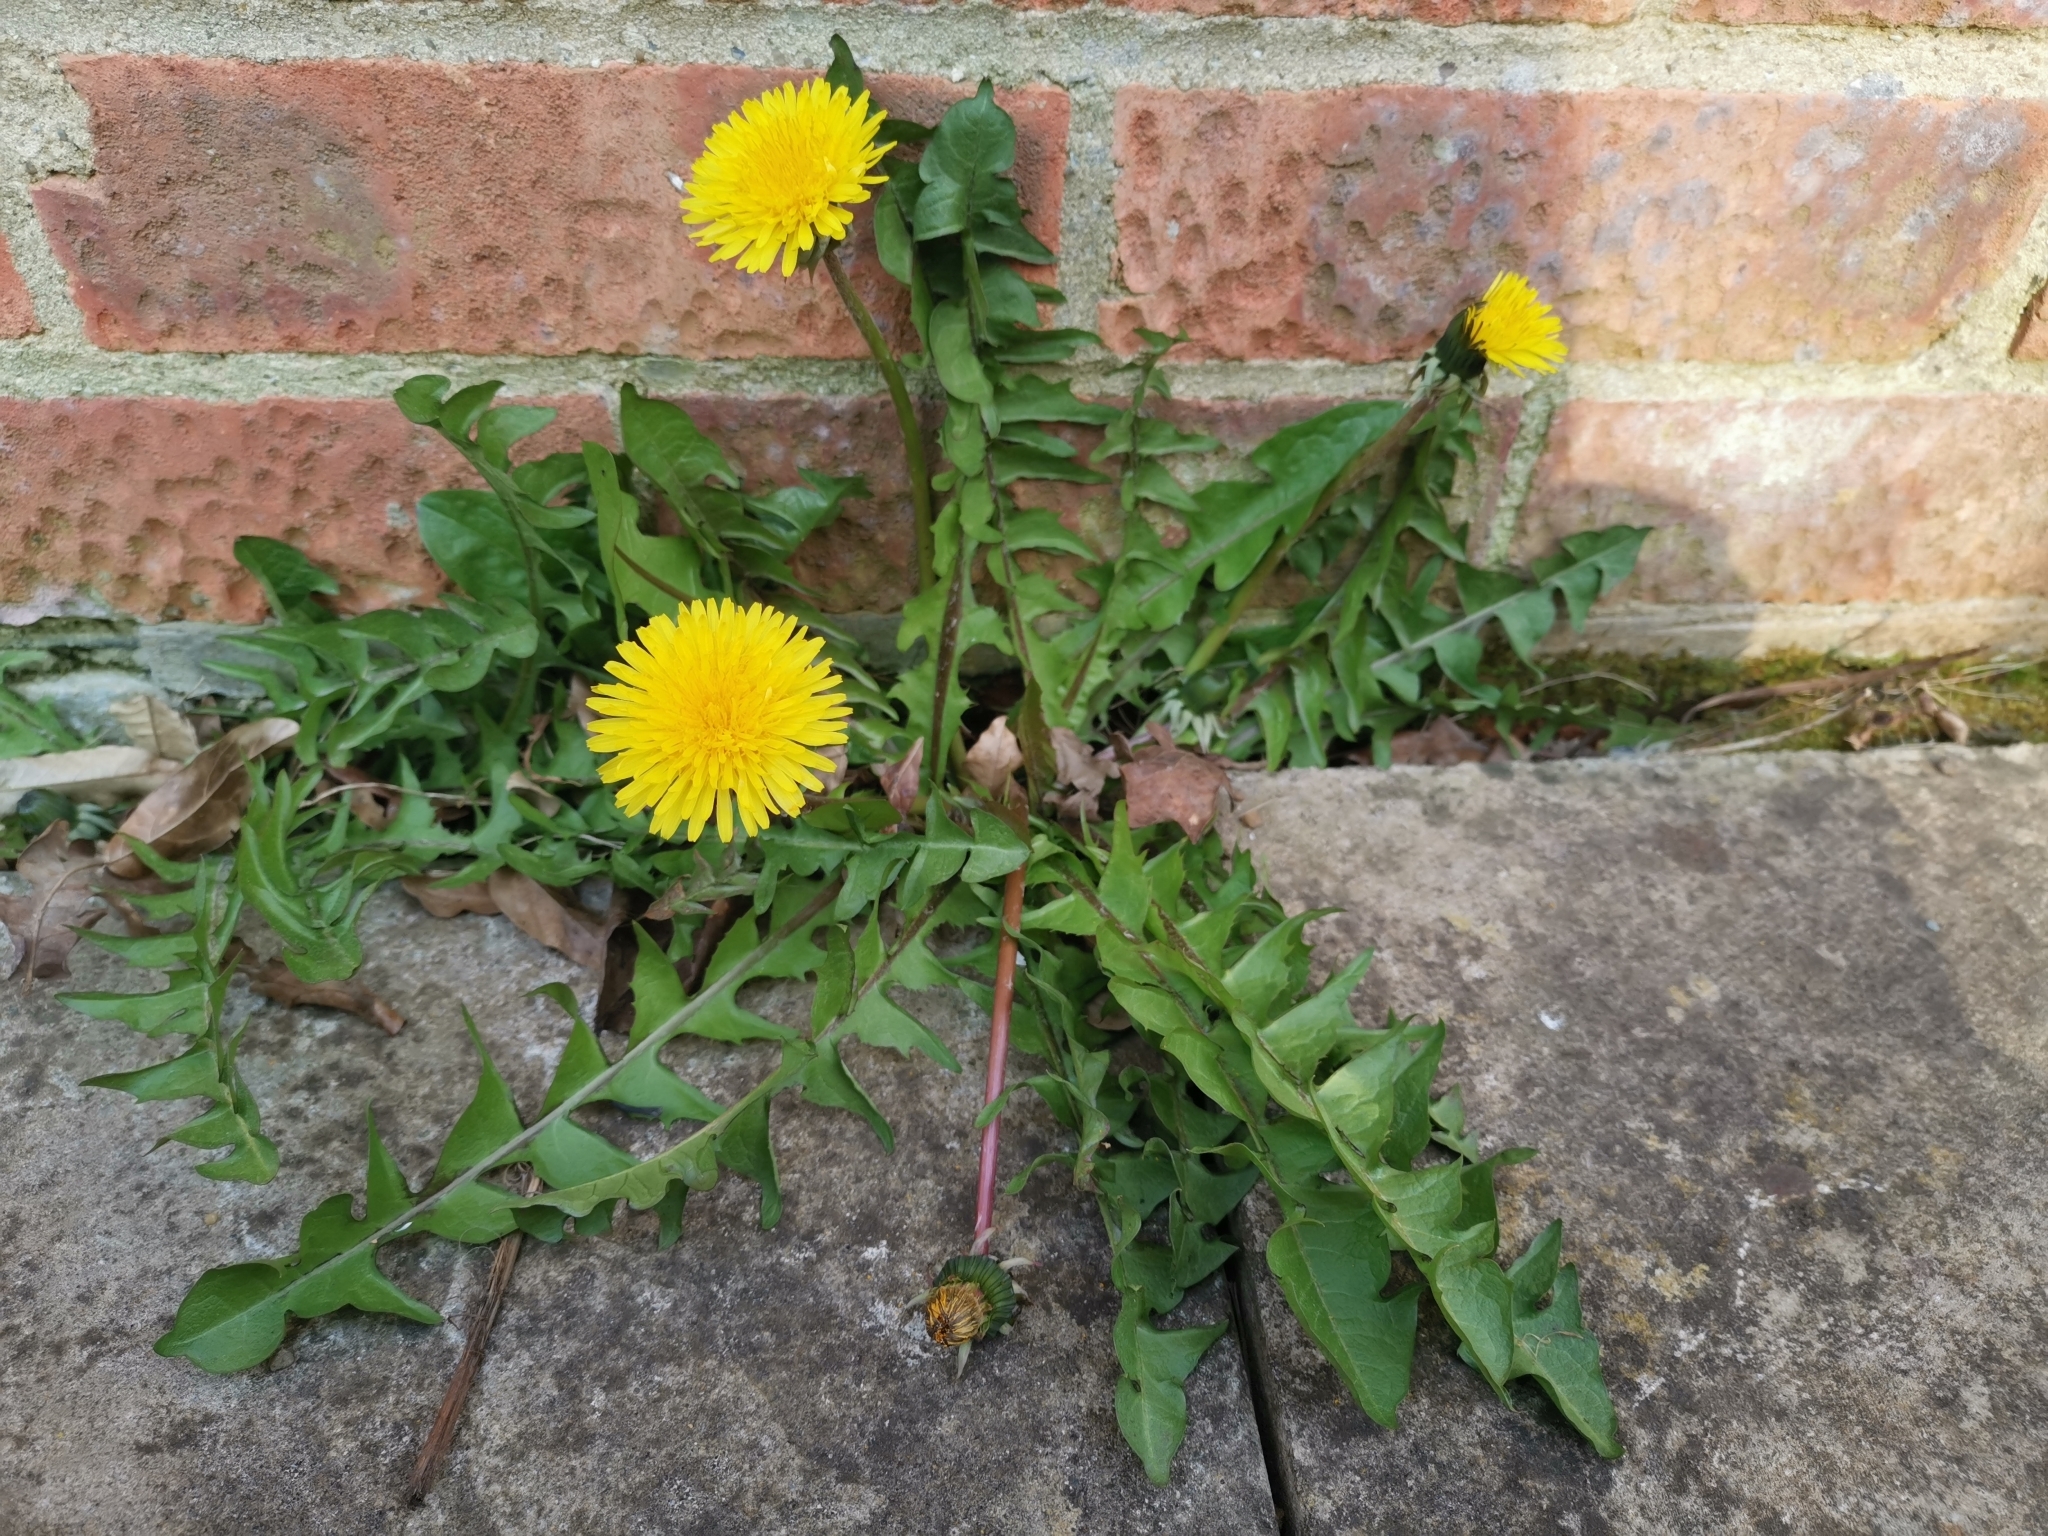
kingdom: Plantae
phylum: Tracheophyta
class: Magnoliopsida
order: Asterales
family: Asteraceae
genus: Taraxacum
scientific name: Taraxacum officinale
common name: Common dandelion
